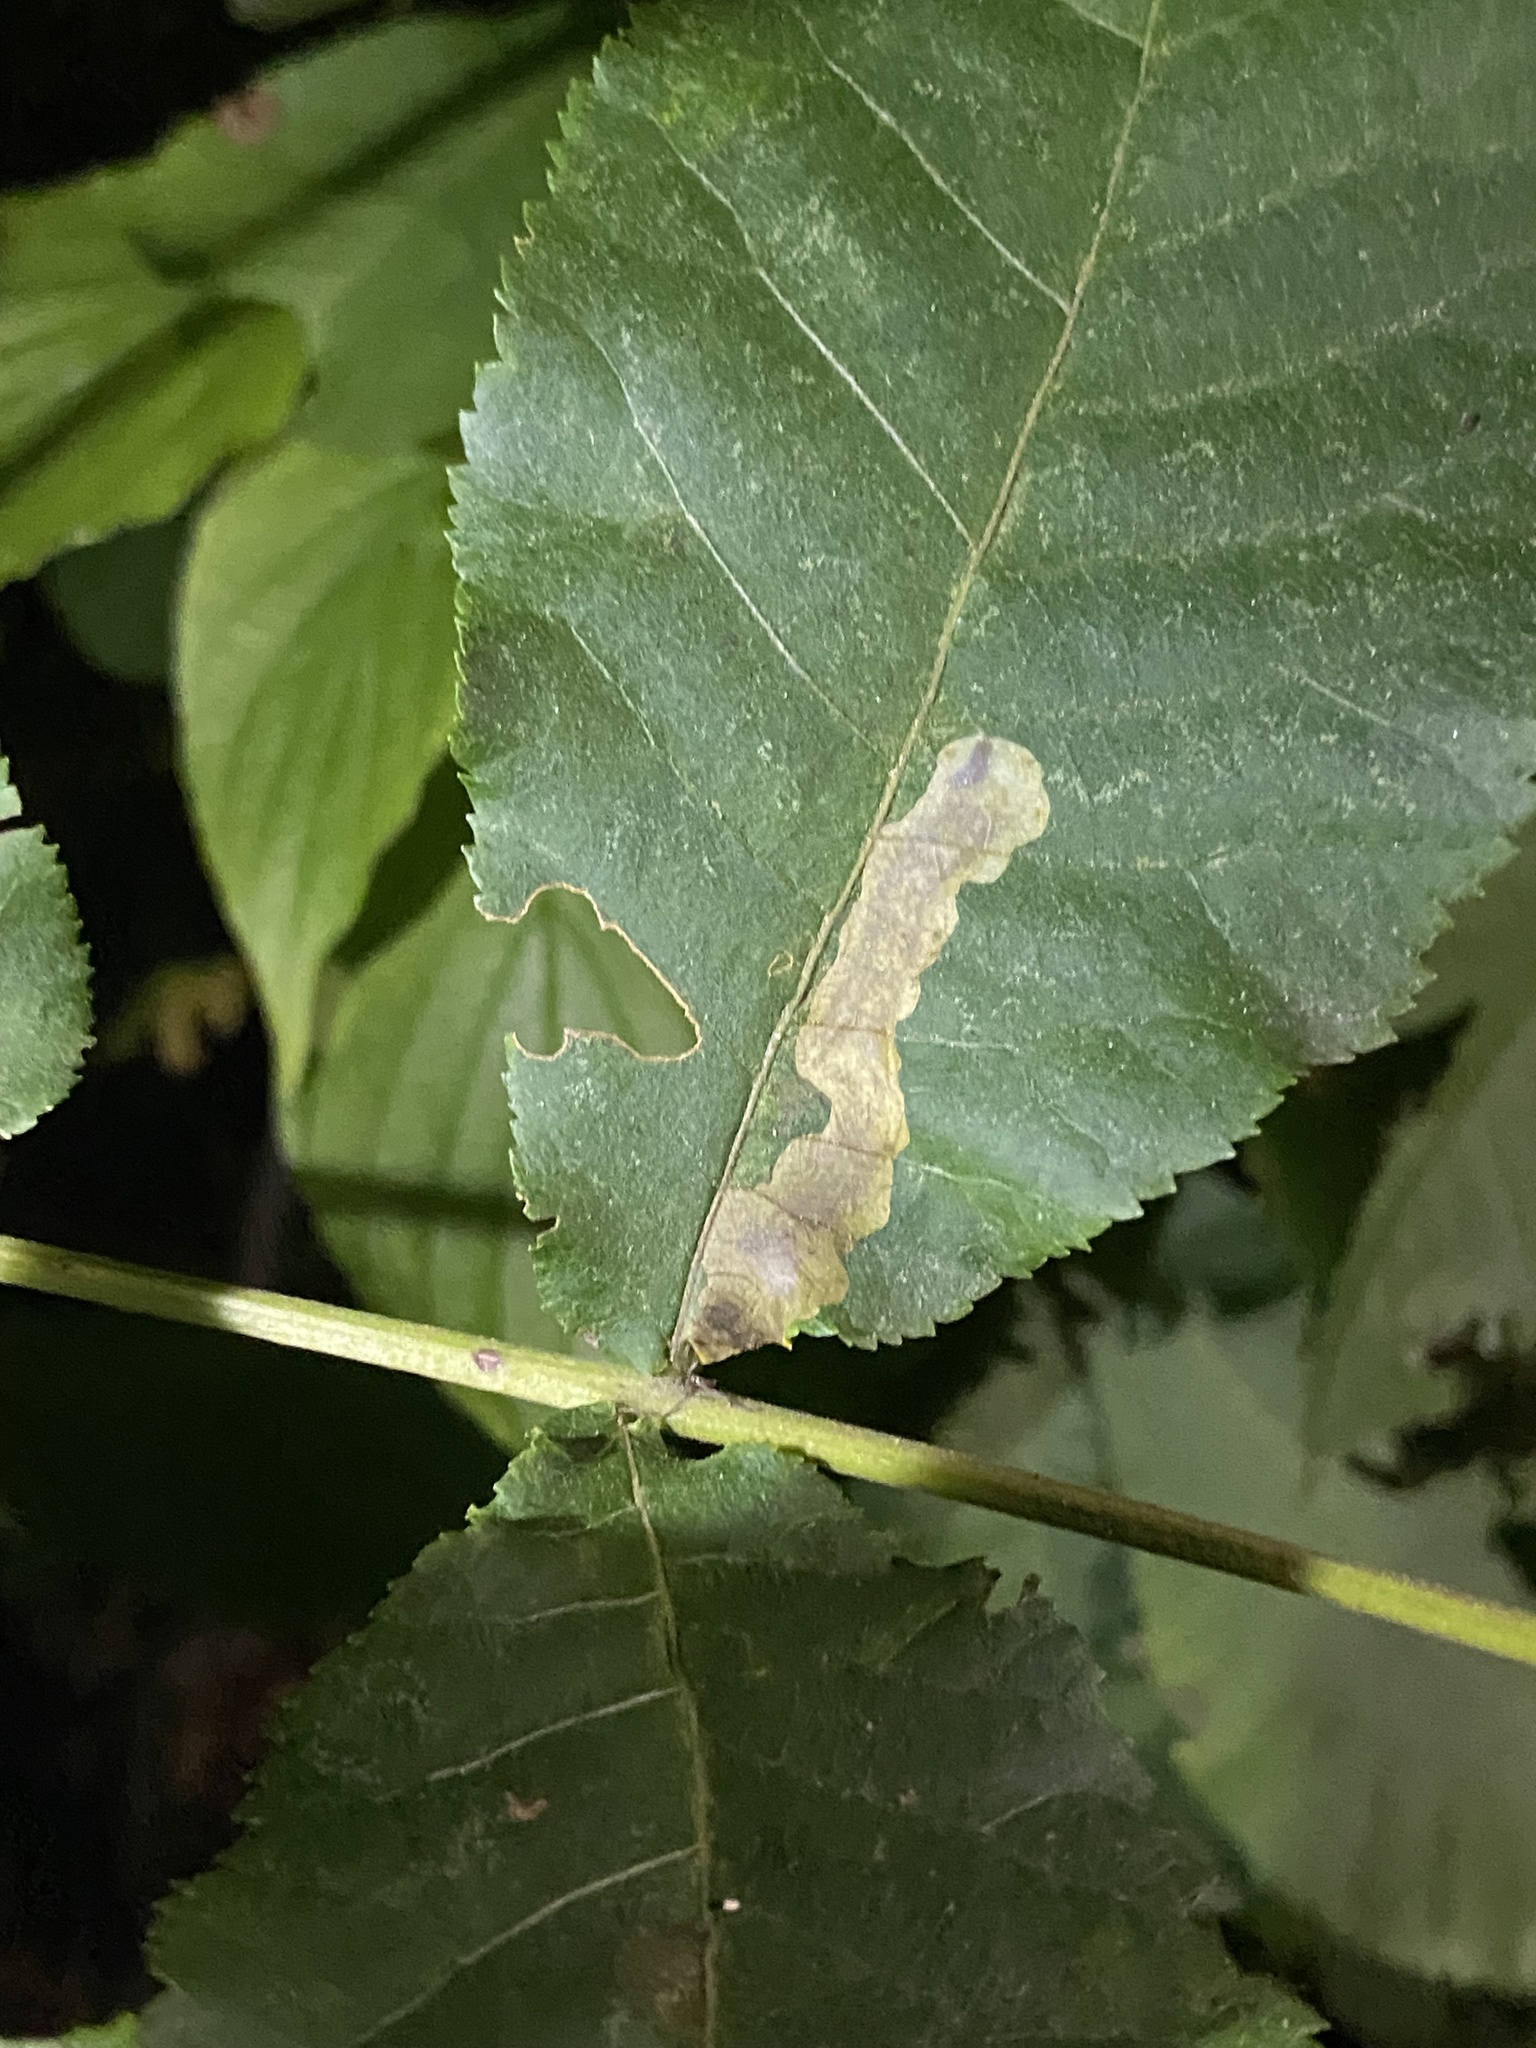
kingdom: Animalia
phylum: Arthropoda
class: Insecta
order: Lepidoptera
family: Gracillariidae
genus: Cameraria
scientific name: Cameraria caryaefoliella
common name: Pecan leafminer moth
